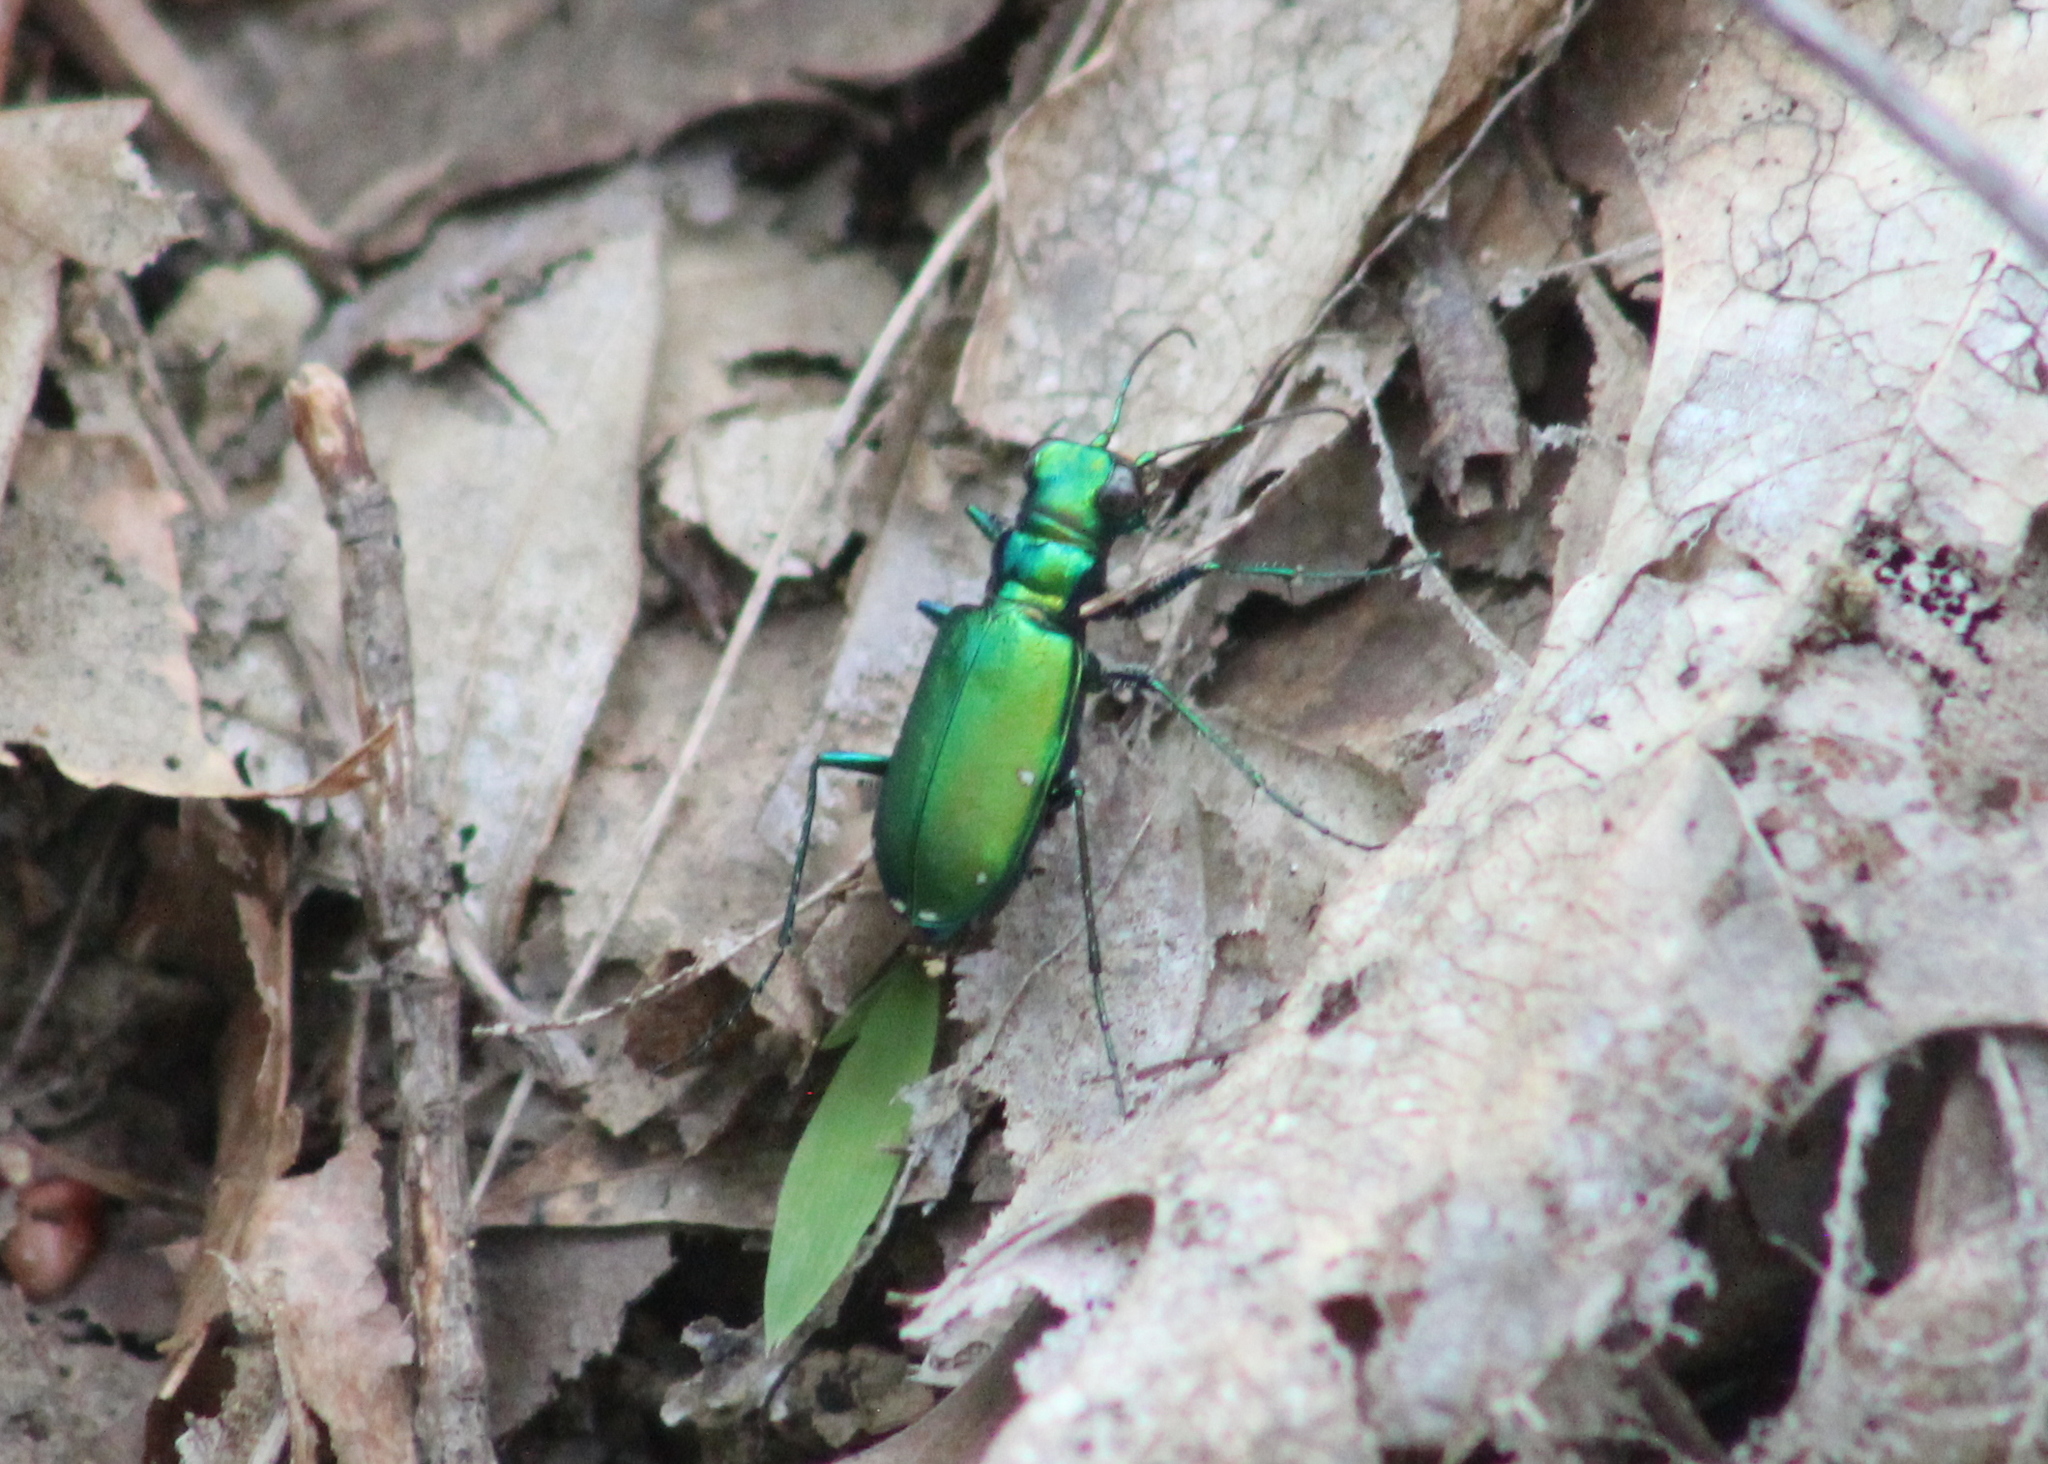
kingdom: Animalia
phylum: Arthropoda
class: Insecta
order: Coleoptera
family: Carabidae
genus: Cicindela
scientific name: Cicindela sexguttata
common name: Six-spotted tiger beetle
